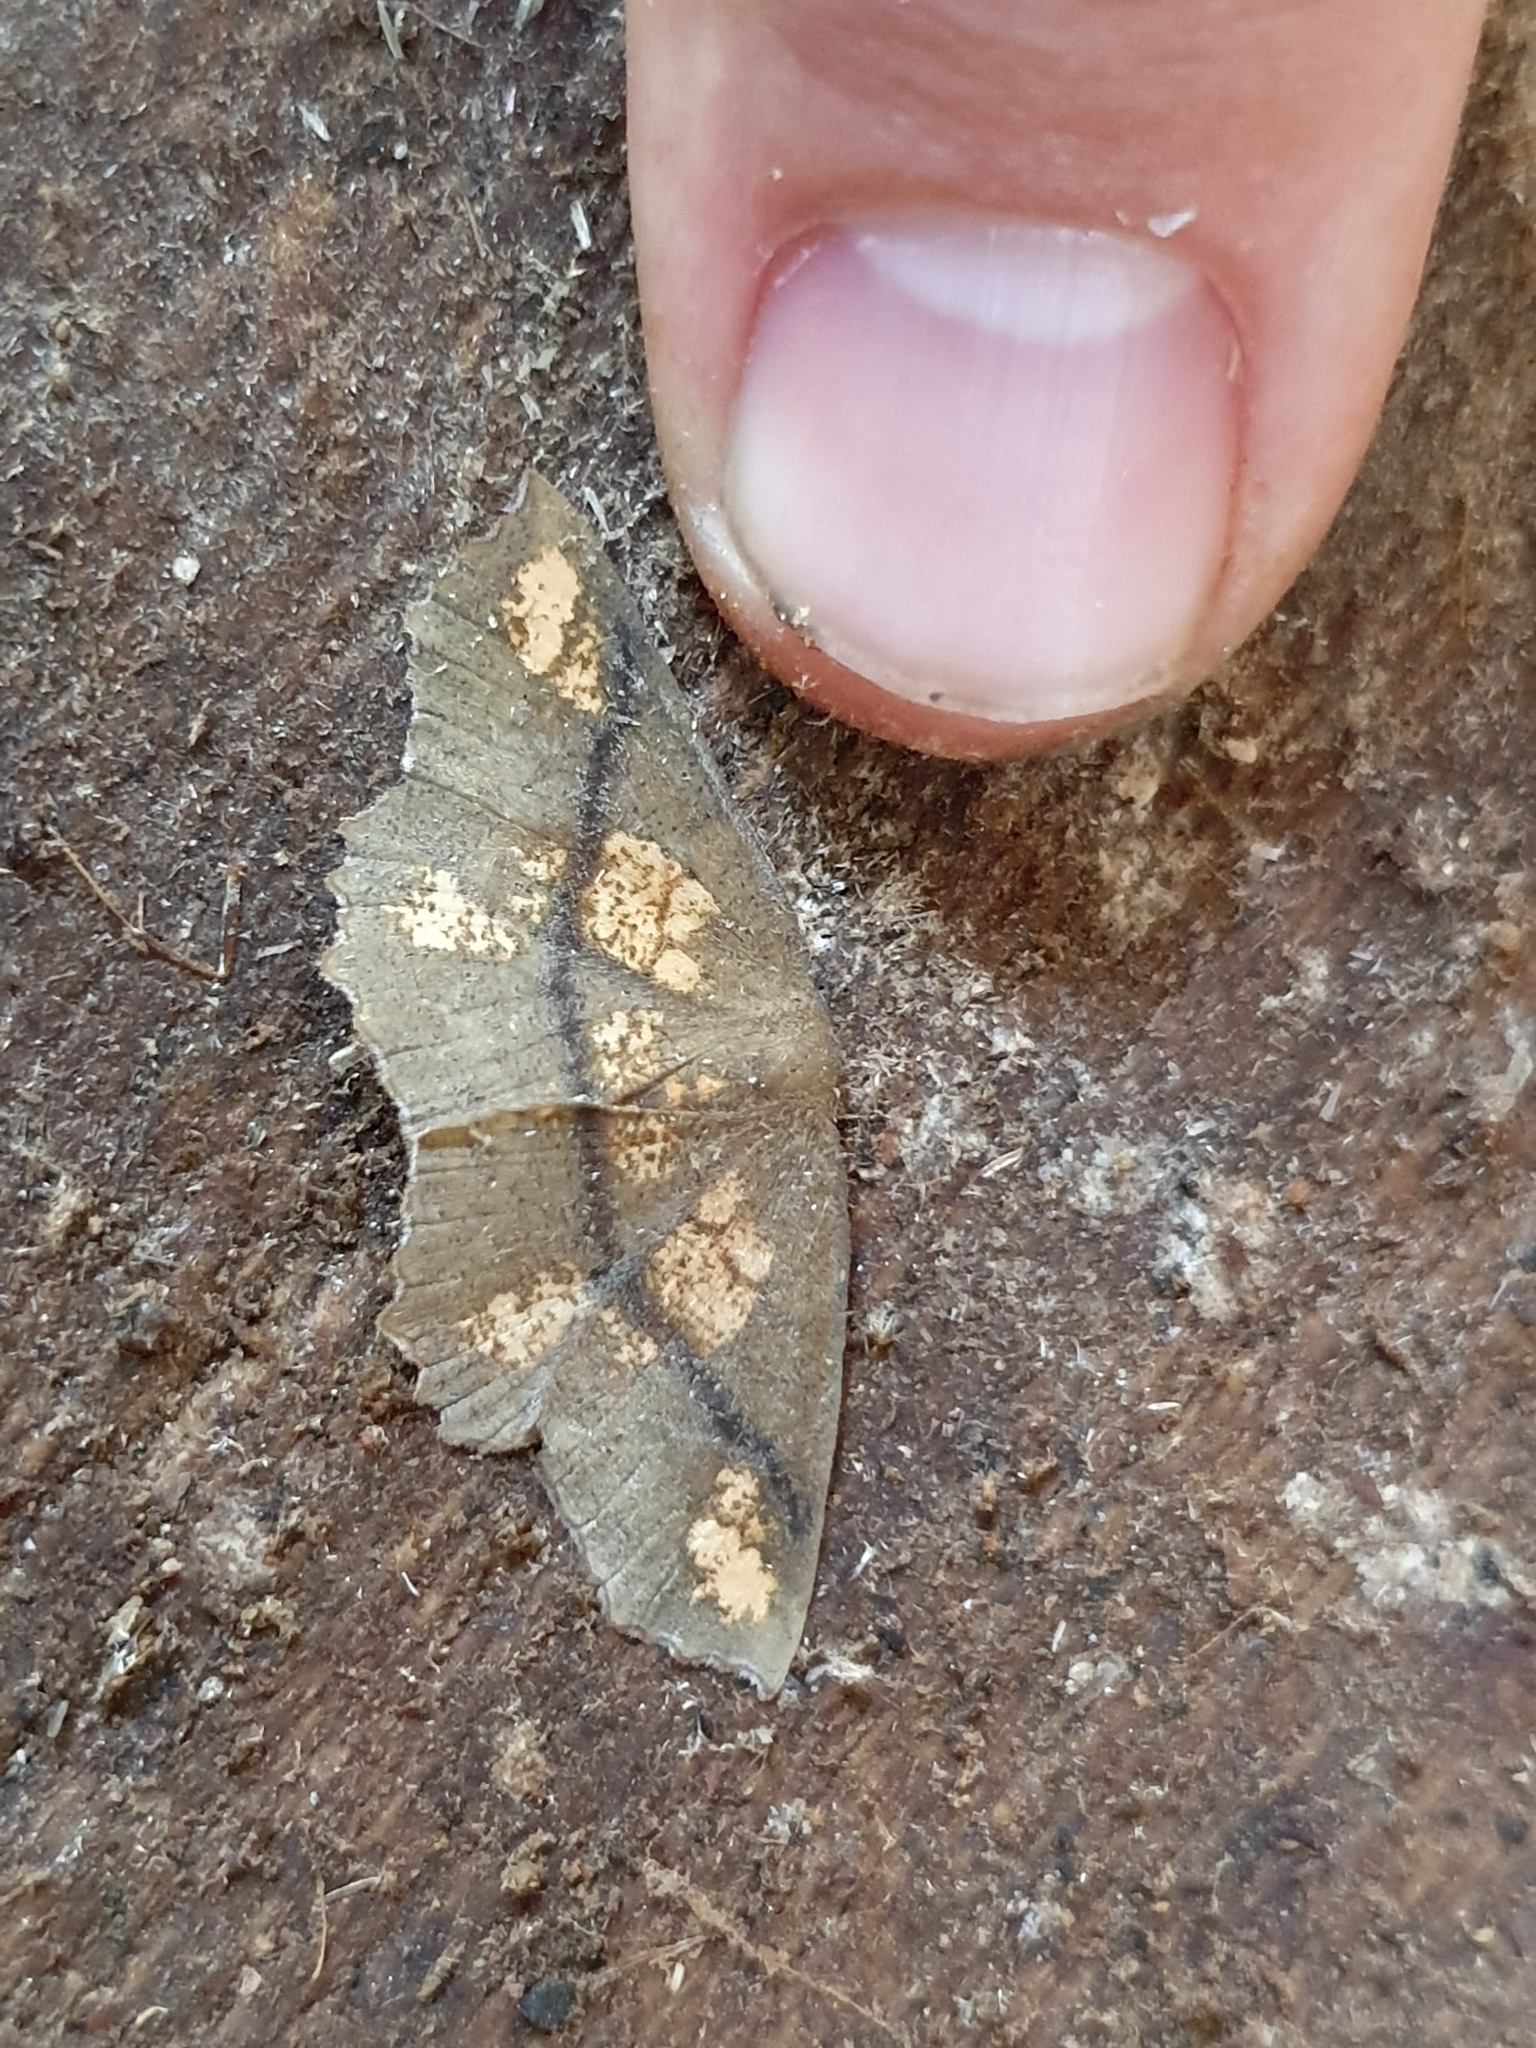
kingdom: Animalia
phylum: Arthropoda
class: Insecta
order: Lepidoptera
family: Geometridae
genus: Xyridacma
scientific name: Xyridacma ustaria
